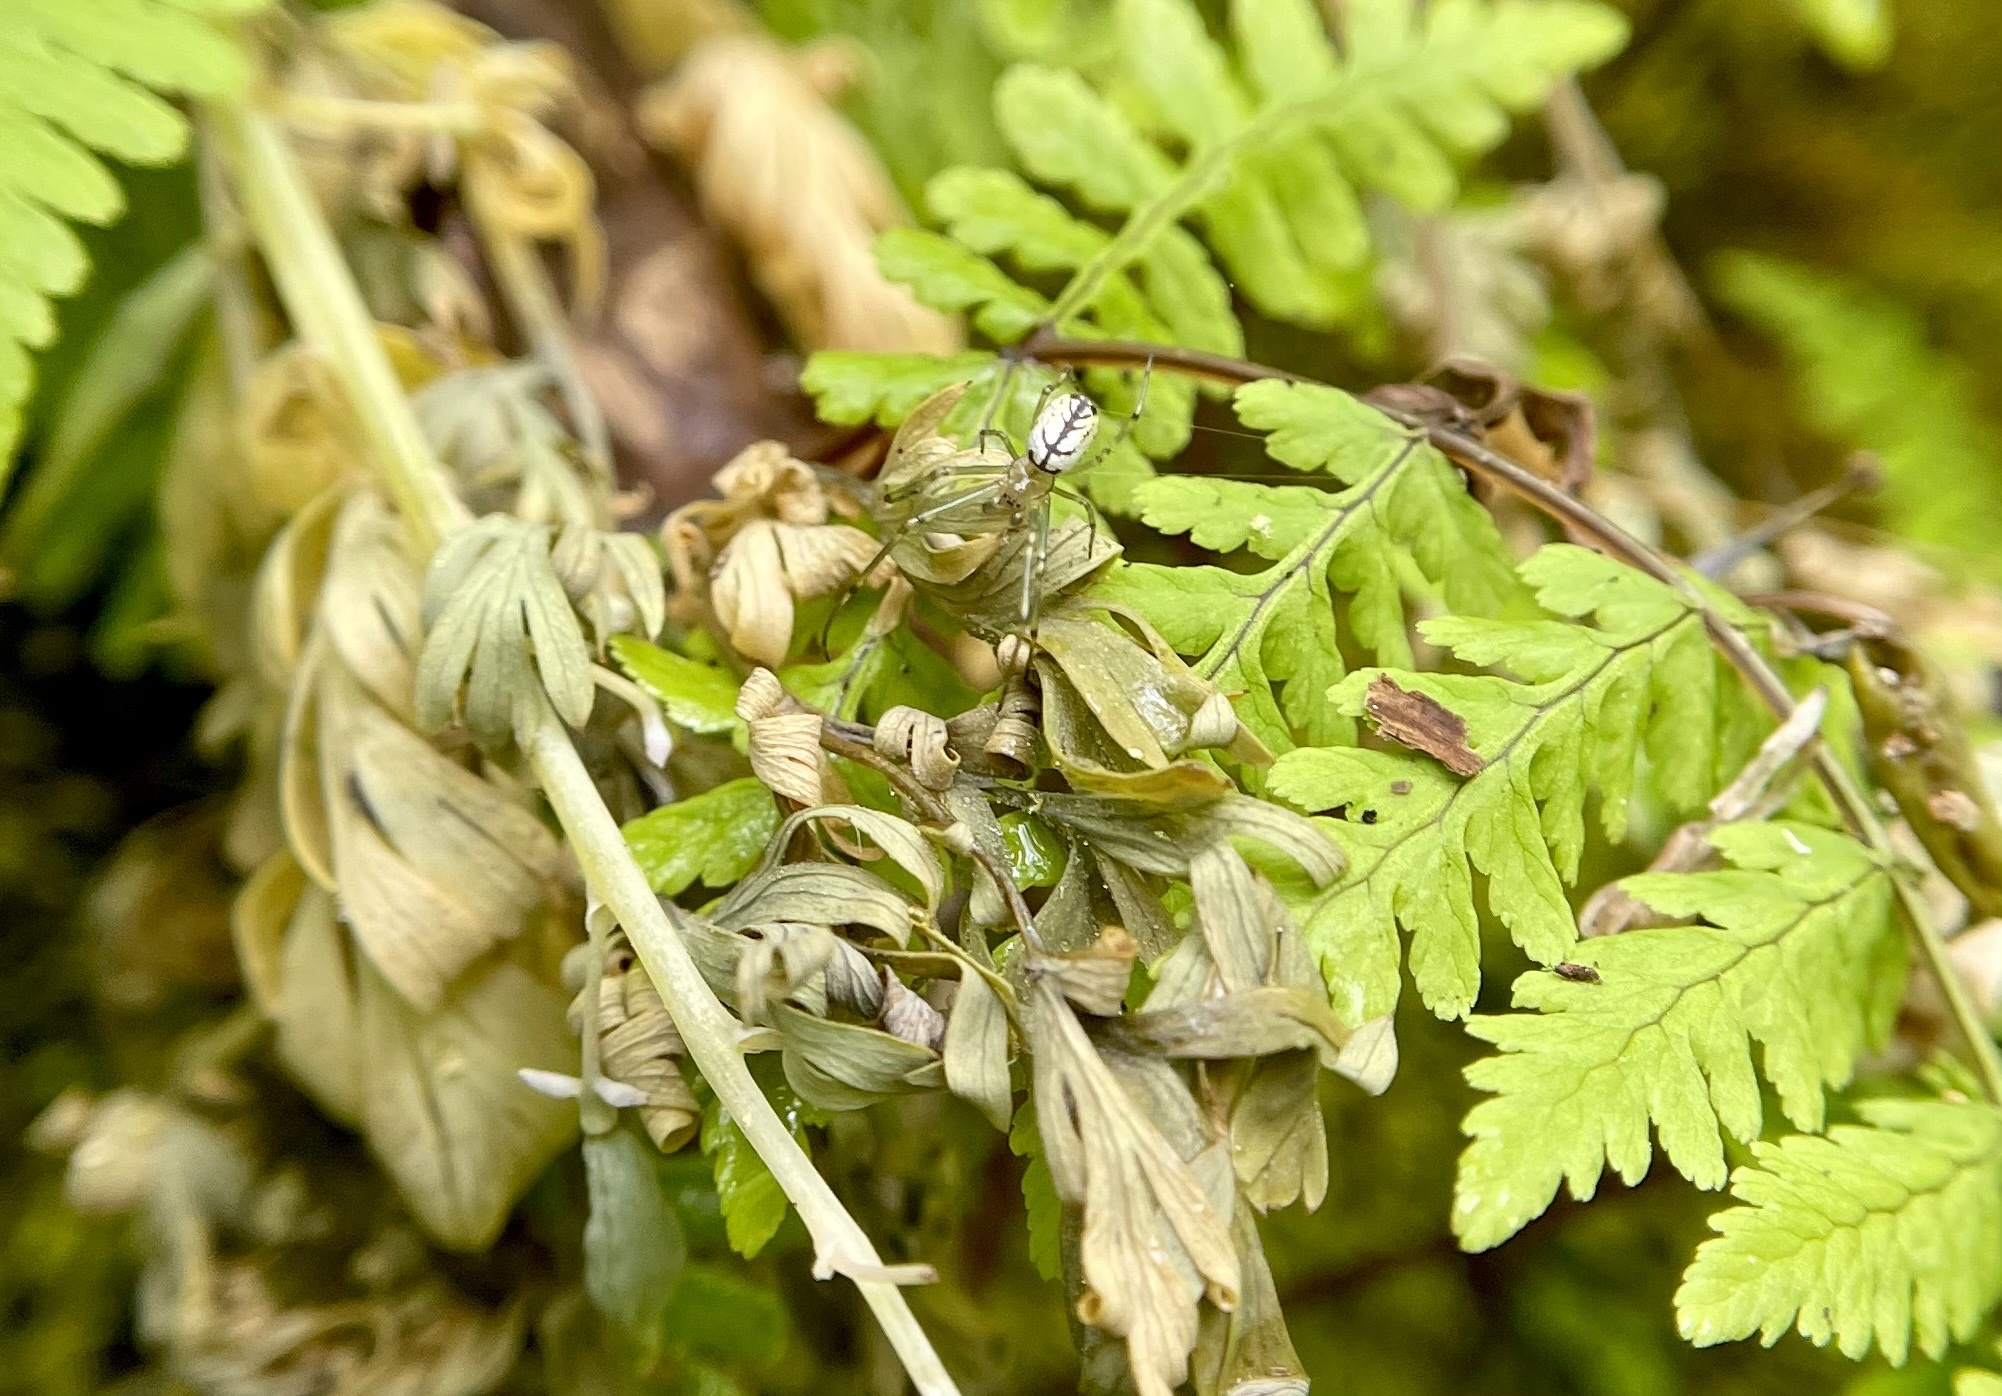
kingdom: Animalia
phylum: Arthropoda
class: Arachnida
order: Araneae
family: Tetragnathidae
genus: Leucauge
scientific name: Leucauge venusta
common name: Longjawed orb weavers
